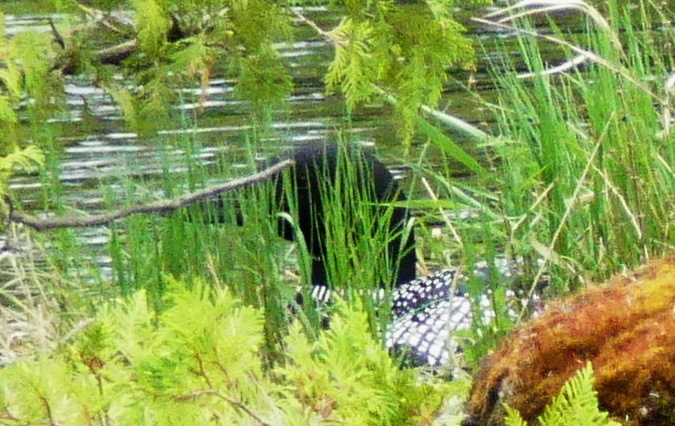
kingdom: Animalia
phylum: Chordata
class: Aves
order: Gaviiformes
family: Gaviidae
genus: Gavia
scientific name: Gavia immer
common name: Common loon
